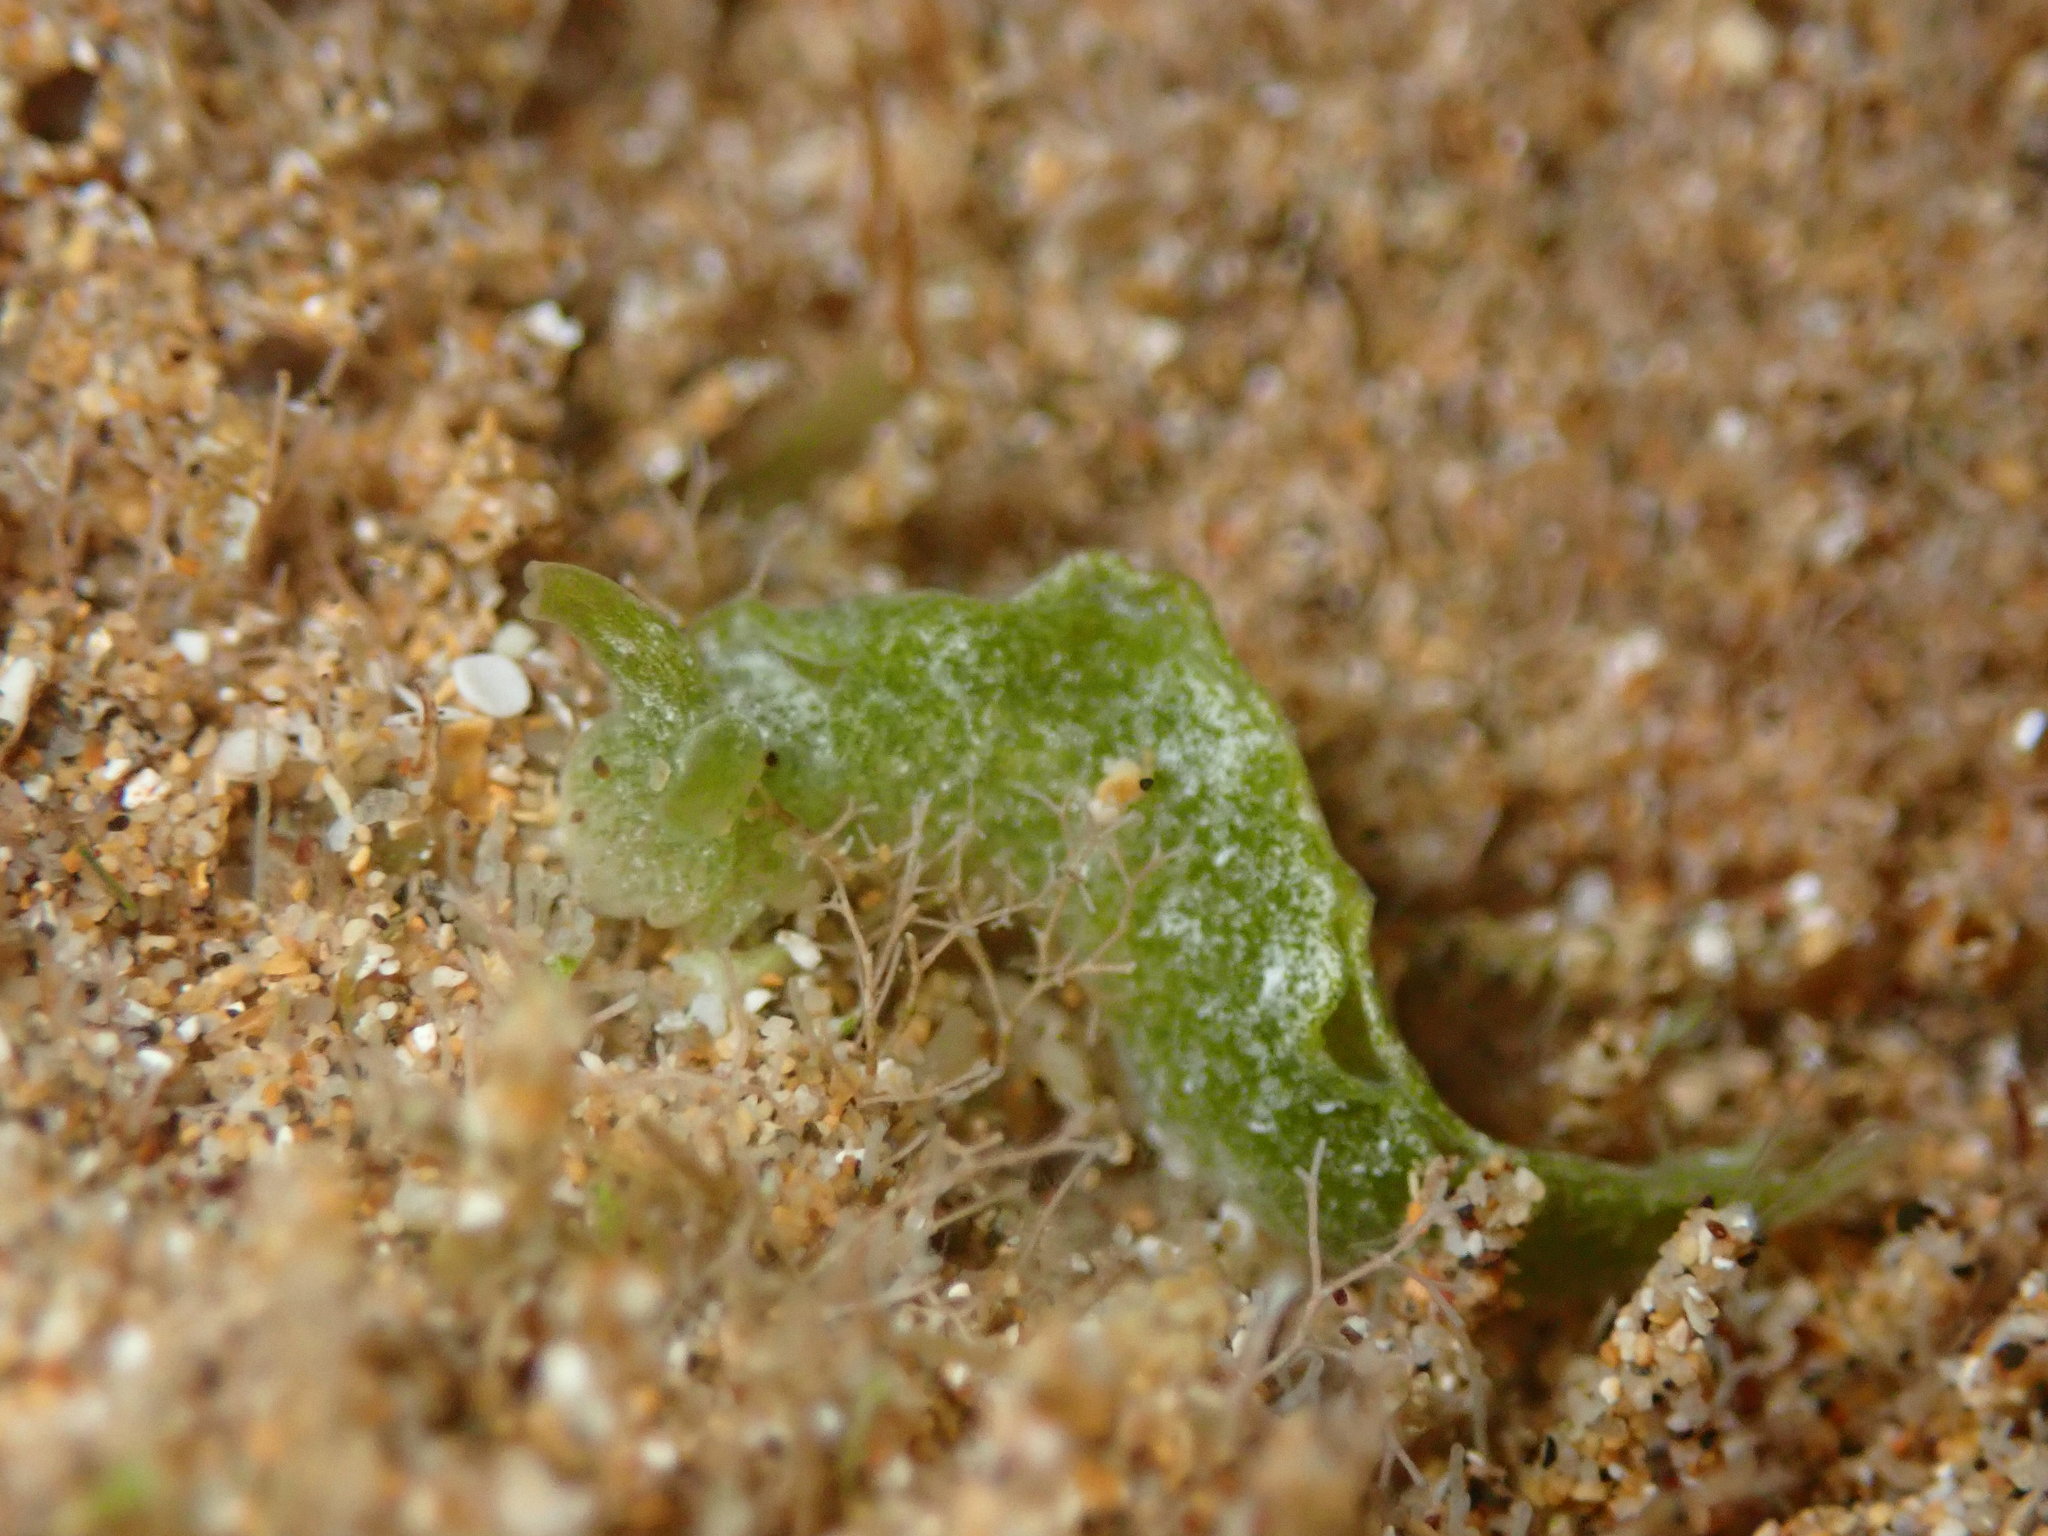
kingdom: Animalia
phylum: Mollusca
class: Gastropoda
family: Plakobranchidae
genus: Elysia
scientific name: Elysia nealae
